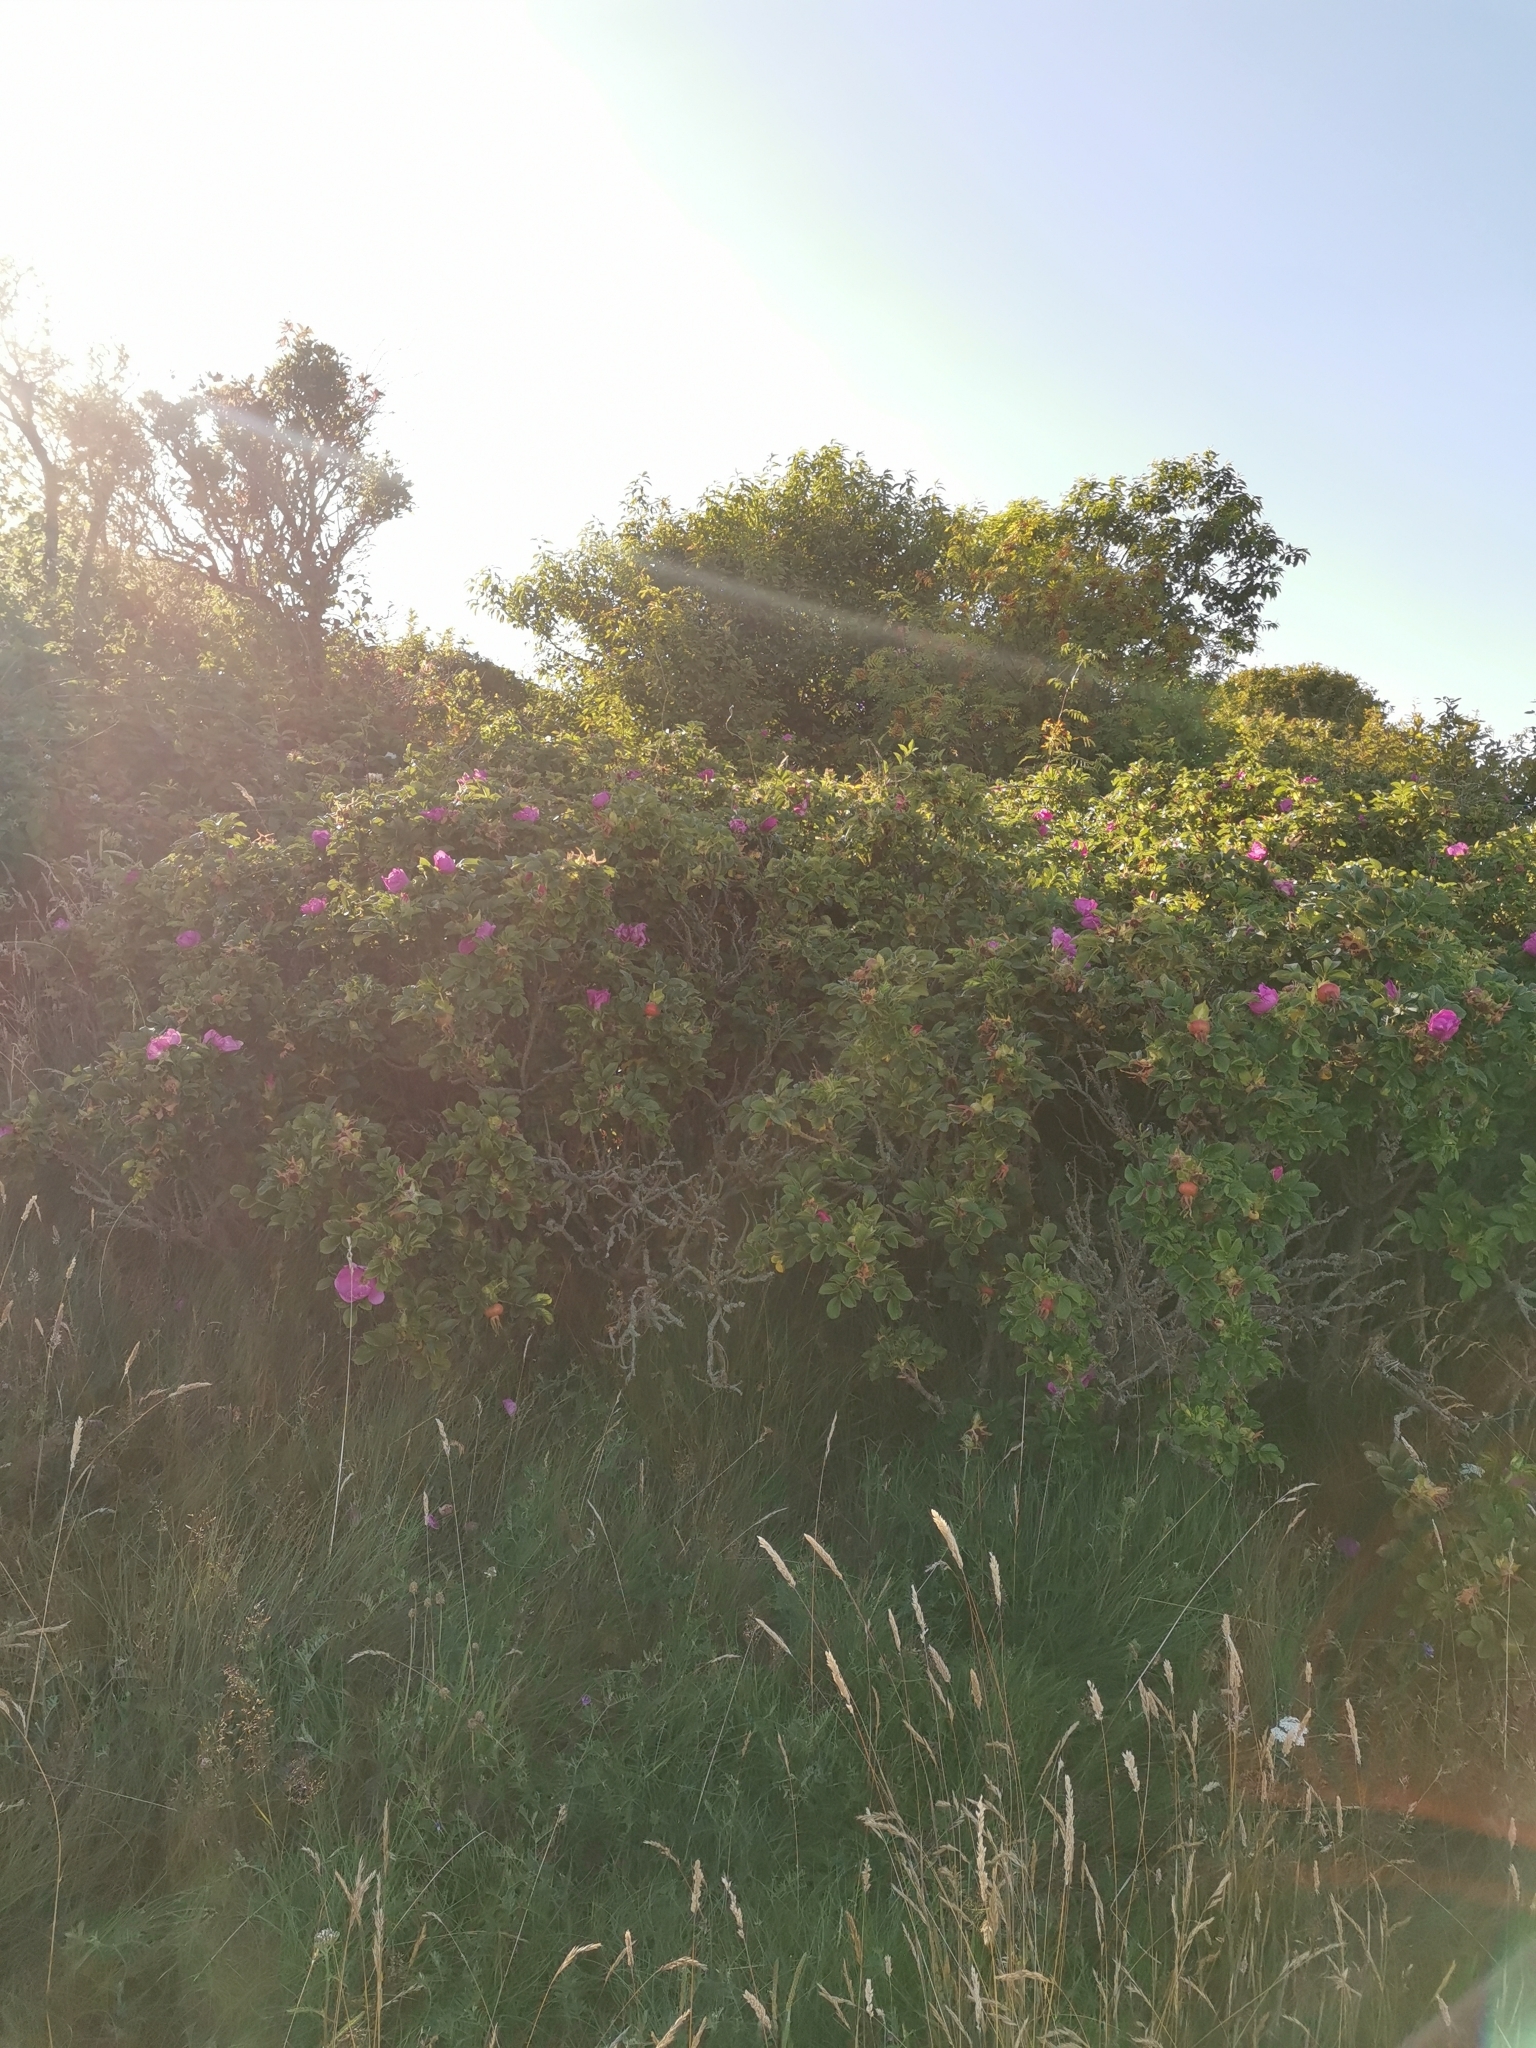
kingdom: Plantae
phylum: Tracheophyta
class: Magnoliopsida
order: Rosales
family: Rosaceae
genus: Rosa
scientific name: Rosa rugosa
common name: Japanese rose
